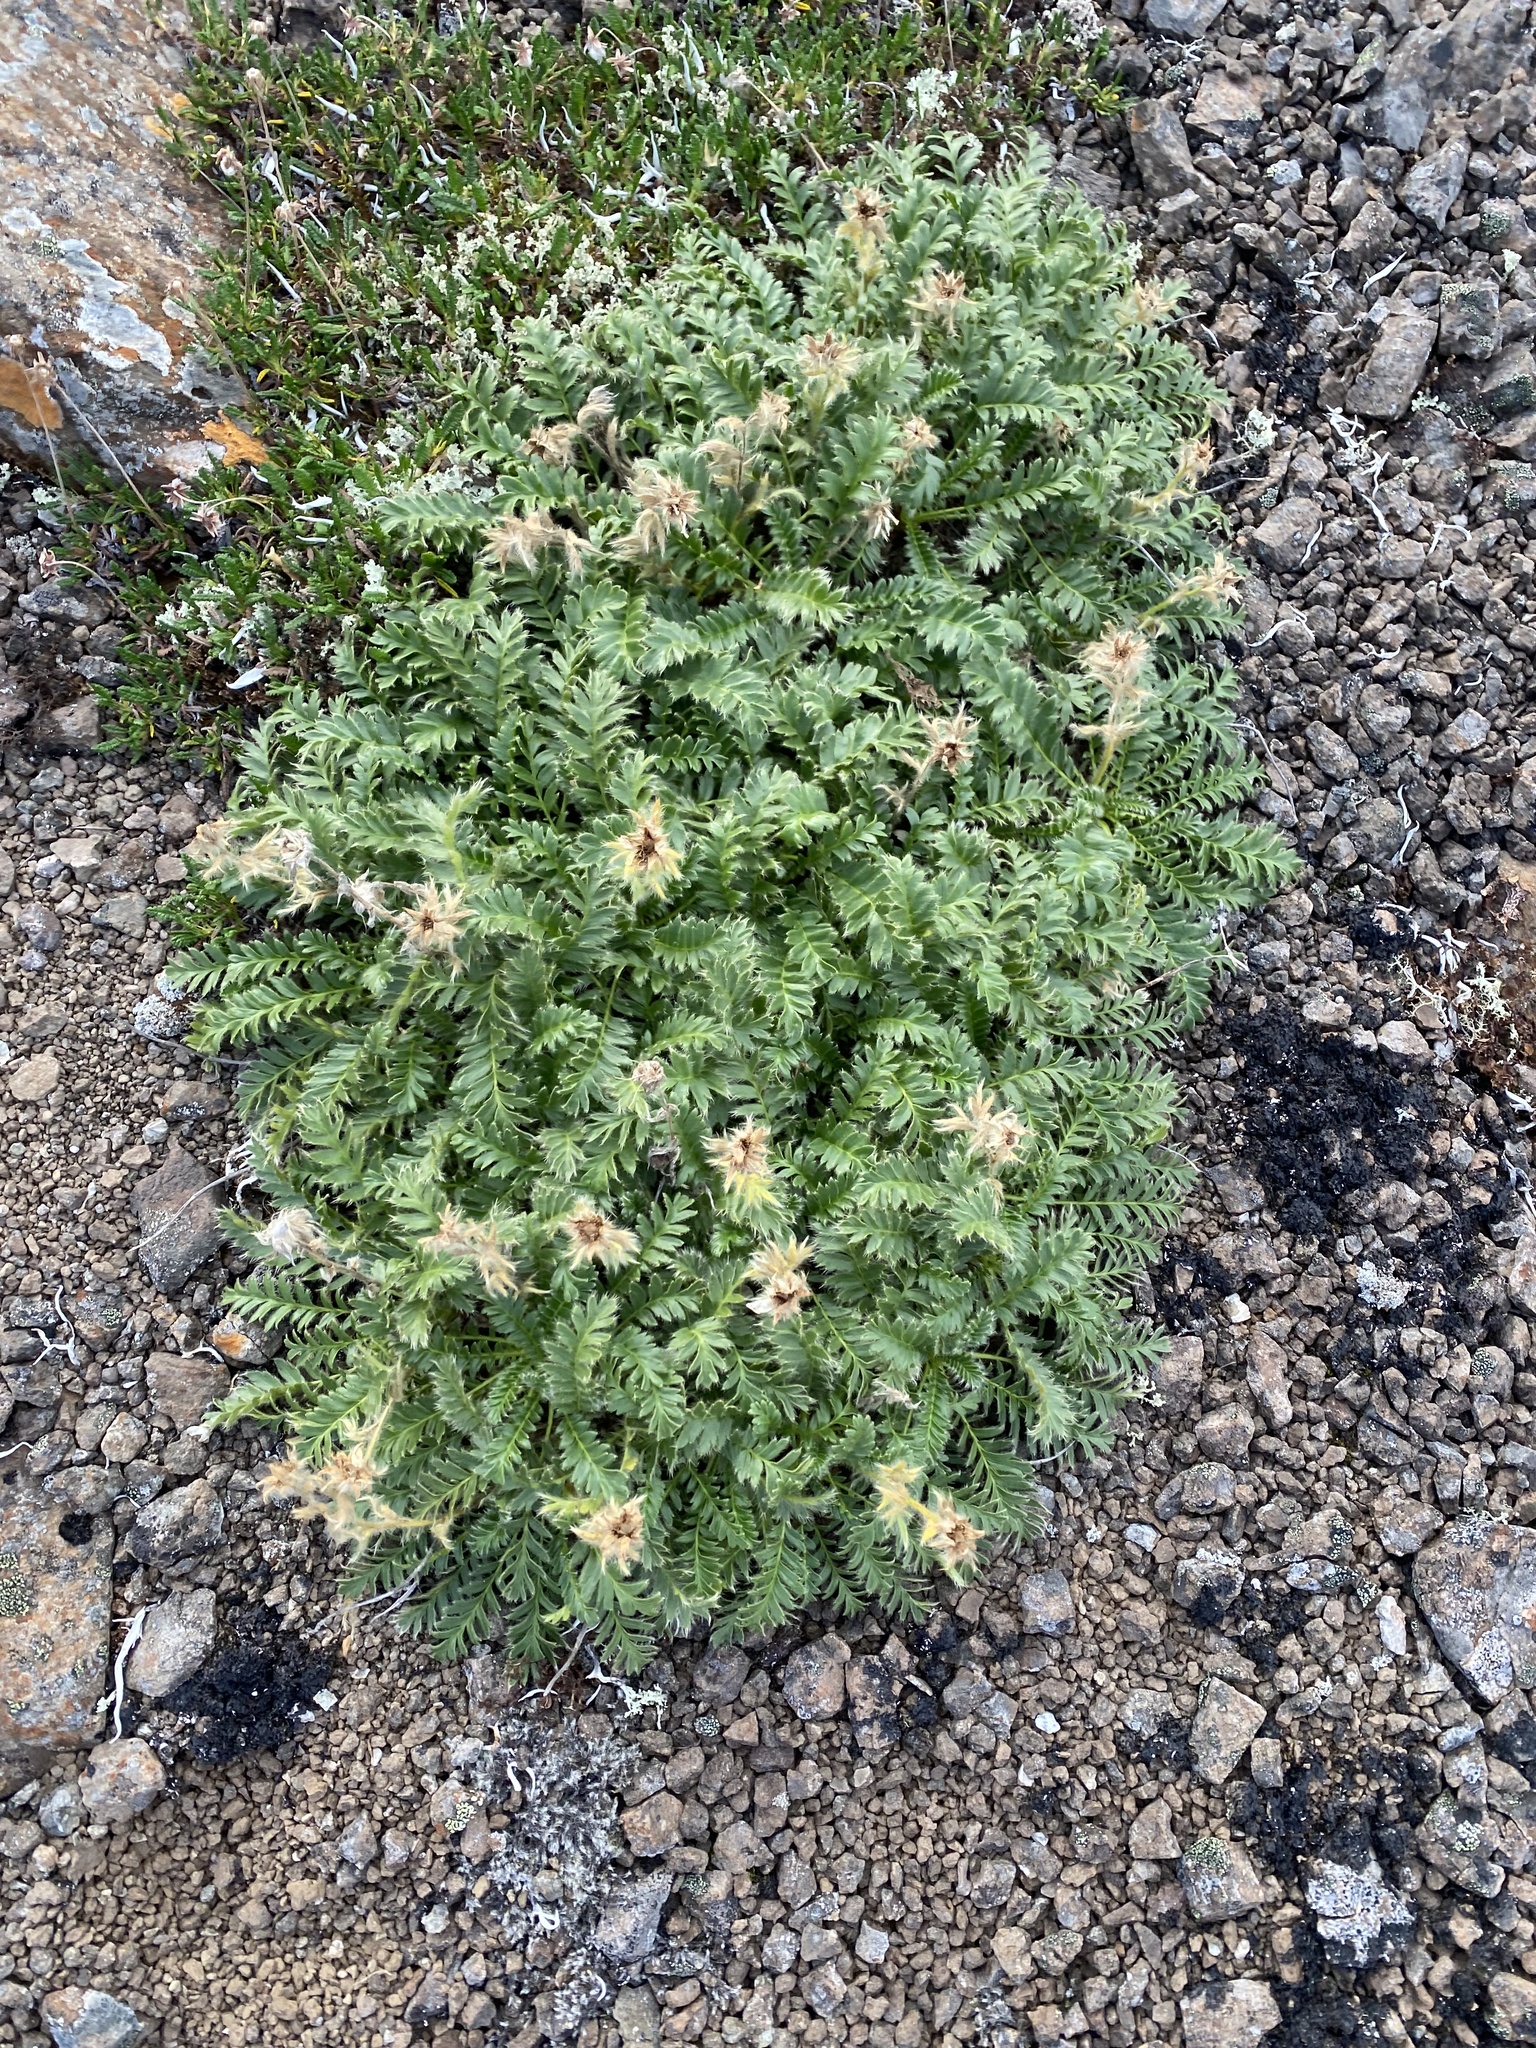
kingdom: Plantae
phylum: Tracheophyta
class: Magnoliopsida
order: Rosales
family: Rosaceae
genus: Geum
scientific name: Geum glaciale
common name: Glacier avens
